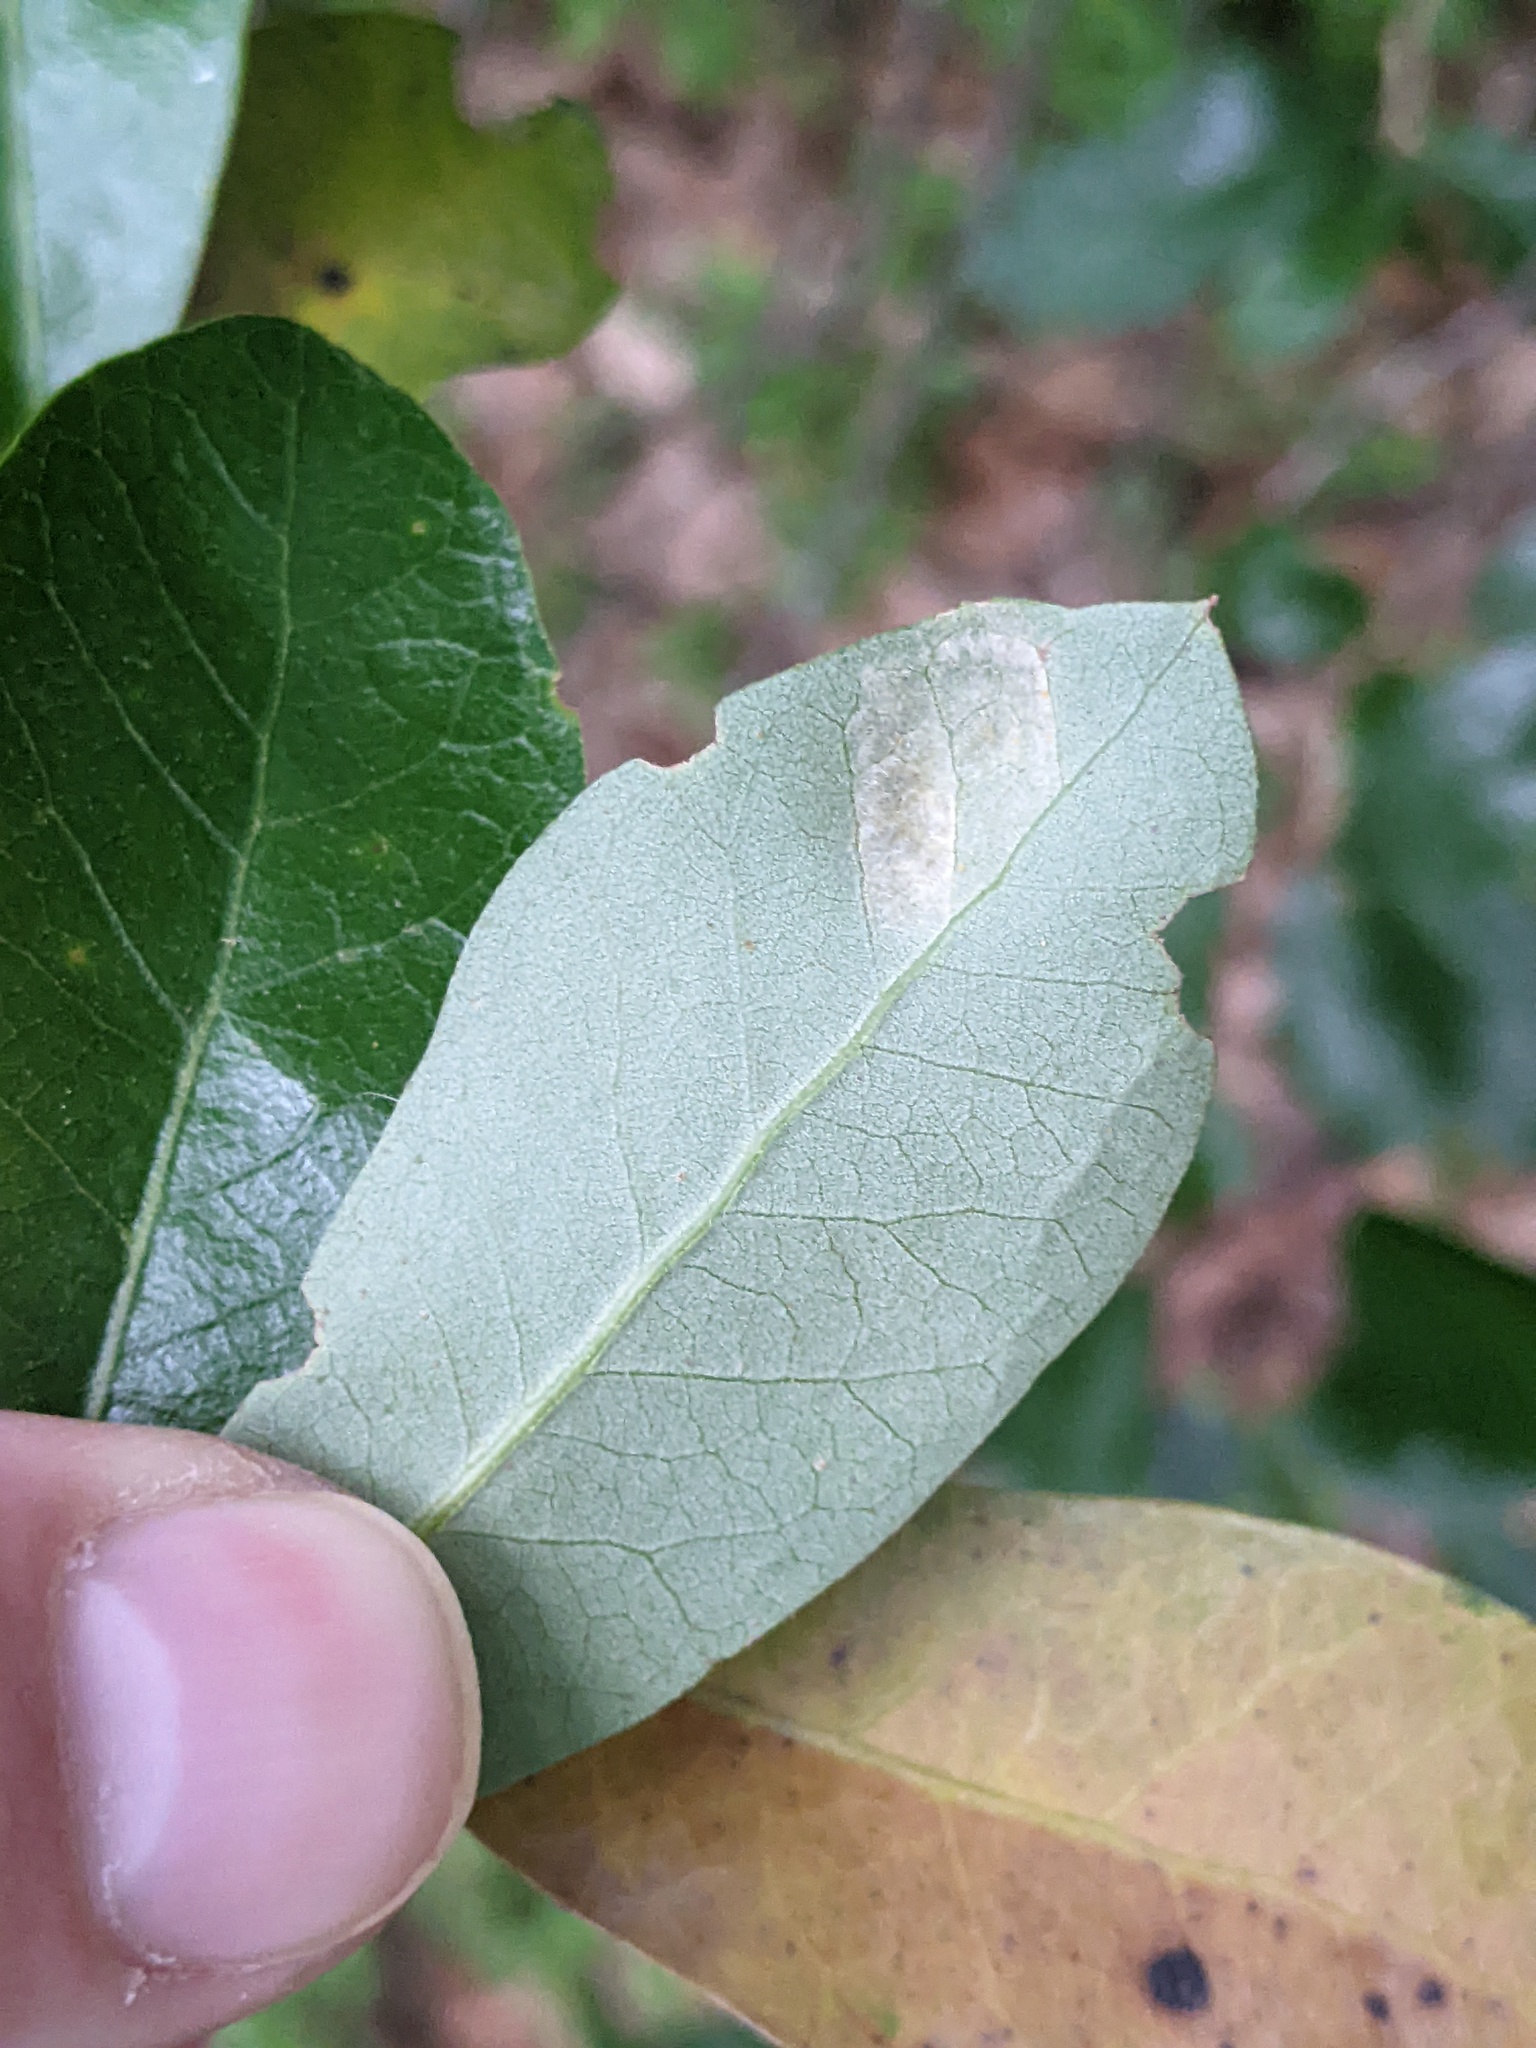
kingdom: Animalia
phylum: Arthropoda
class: Arachnida
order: Trombidiformes
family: Eriophyidae
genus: Aceria
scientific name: Aceria quercina
